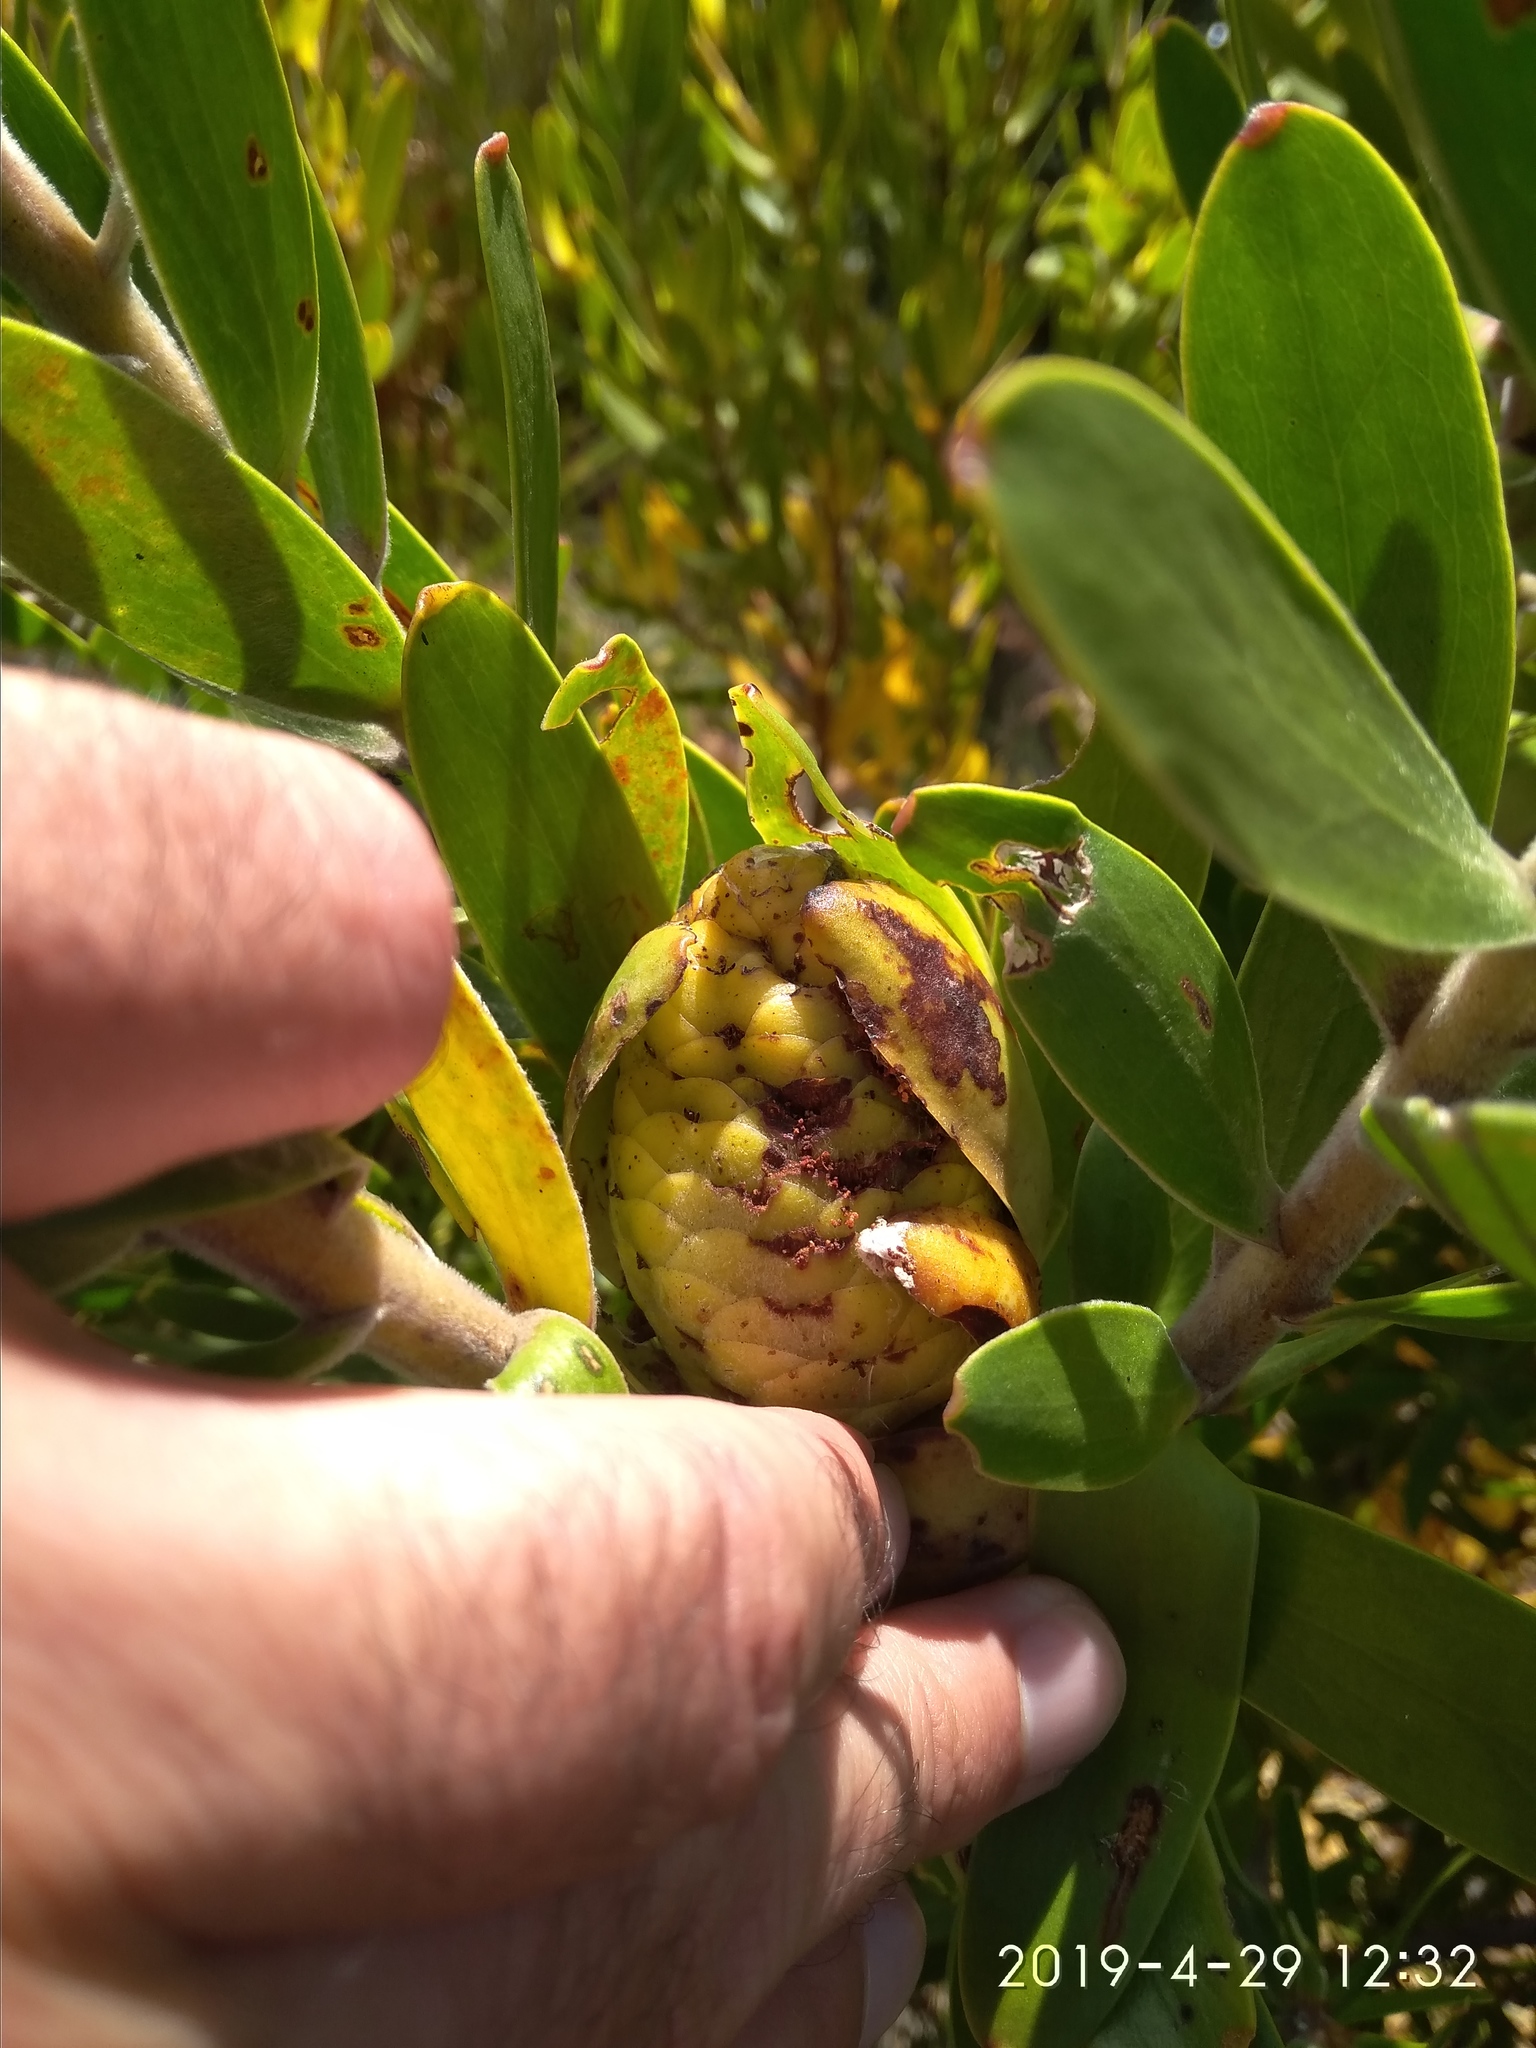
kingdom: Plantae
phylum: Tracheophyta
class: Magnoliopsida
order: Proteales
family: Proteaceae
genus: Leucadendron
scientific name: Leucadendron laureolum
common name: Golden sunshinebush
